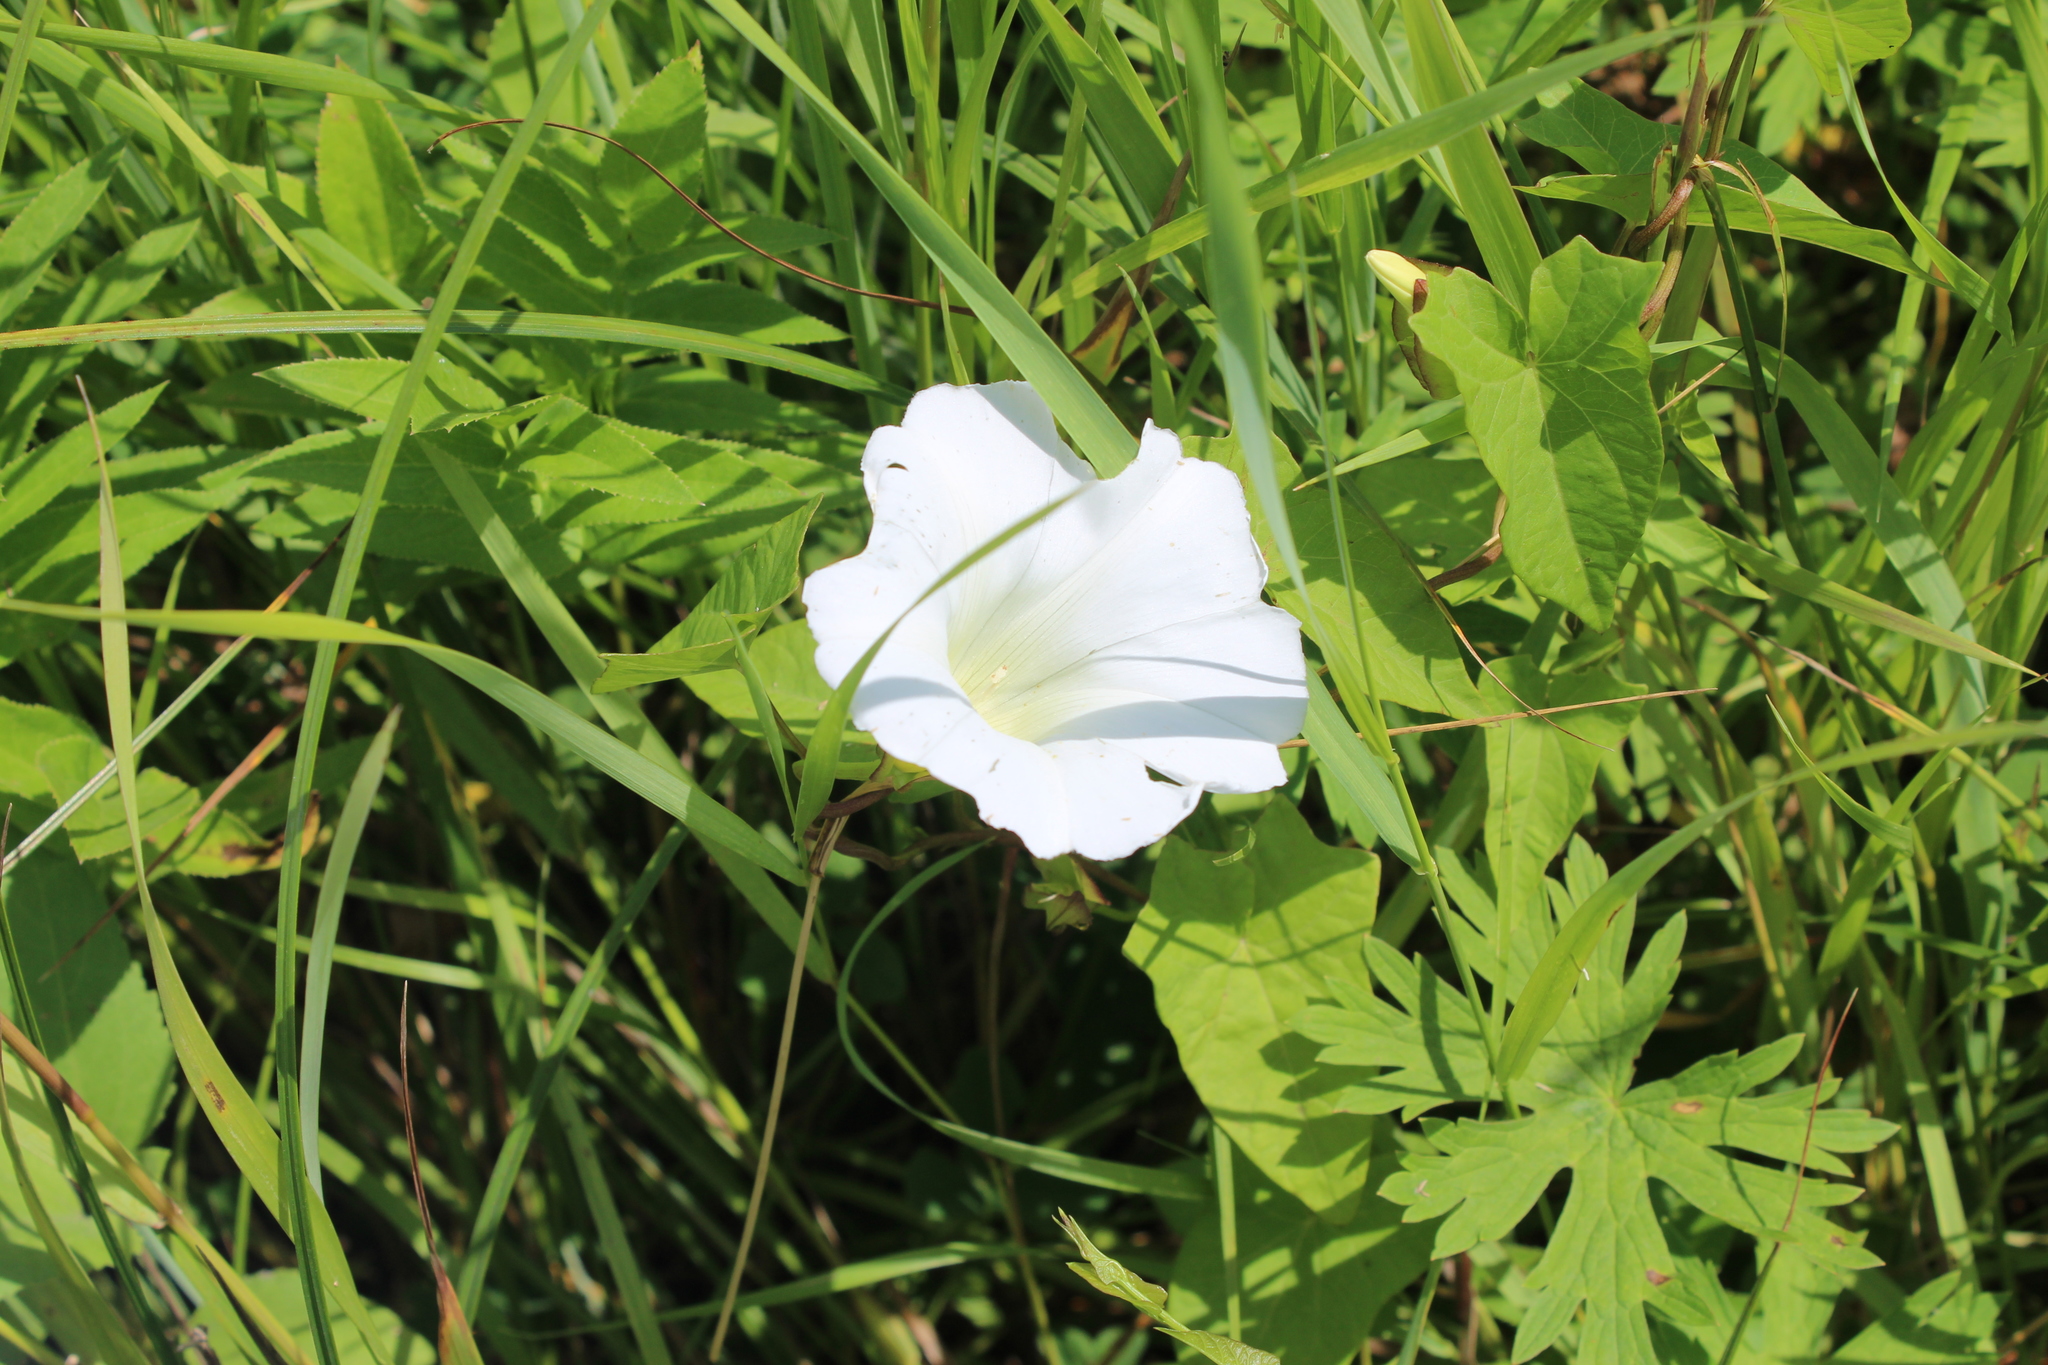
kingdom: Plantae
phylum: Tracheophyta
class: Magnoliopsida
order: Solanales
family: Convolvulaceae
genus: Calystegia
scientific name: Calystegia sepium
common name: Hedge bindweed
